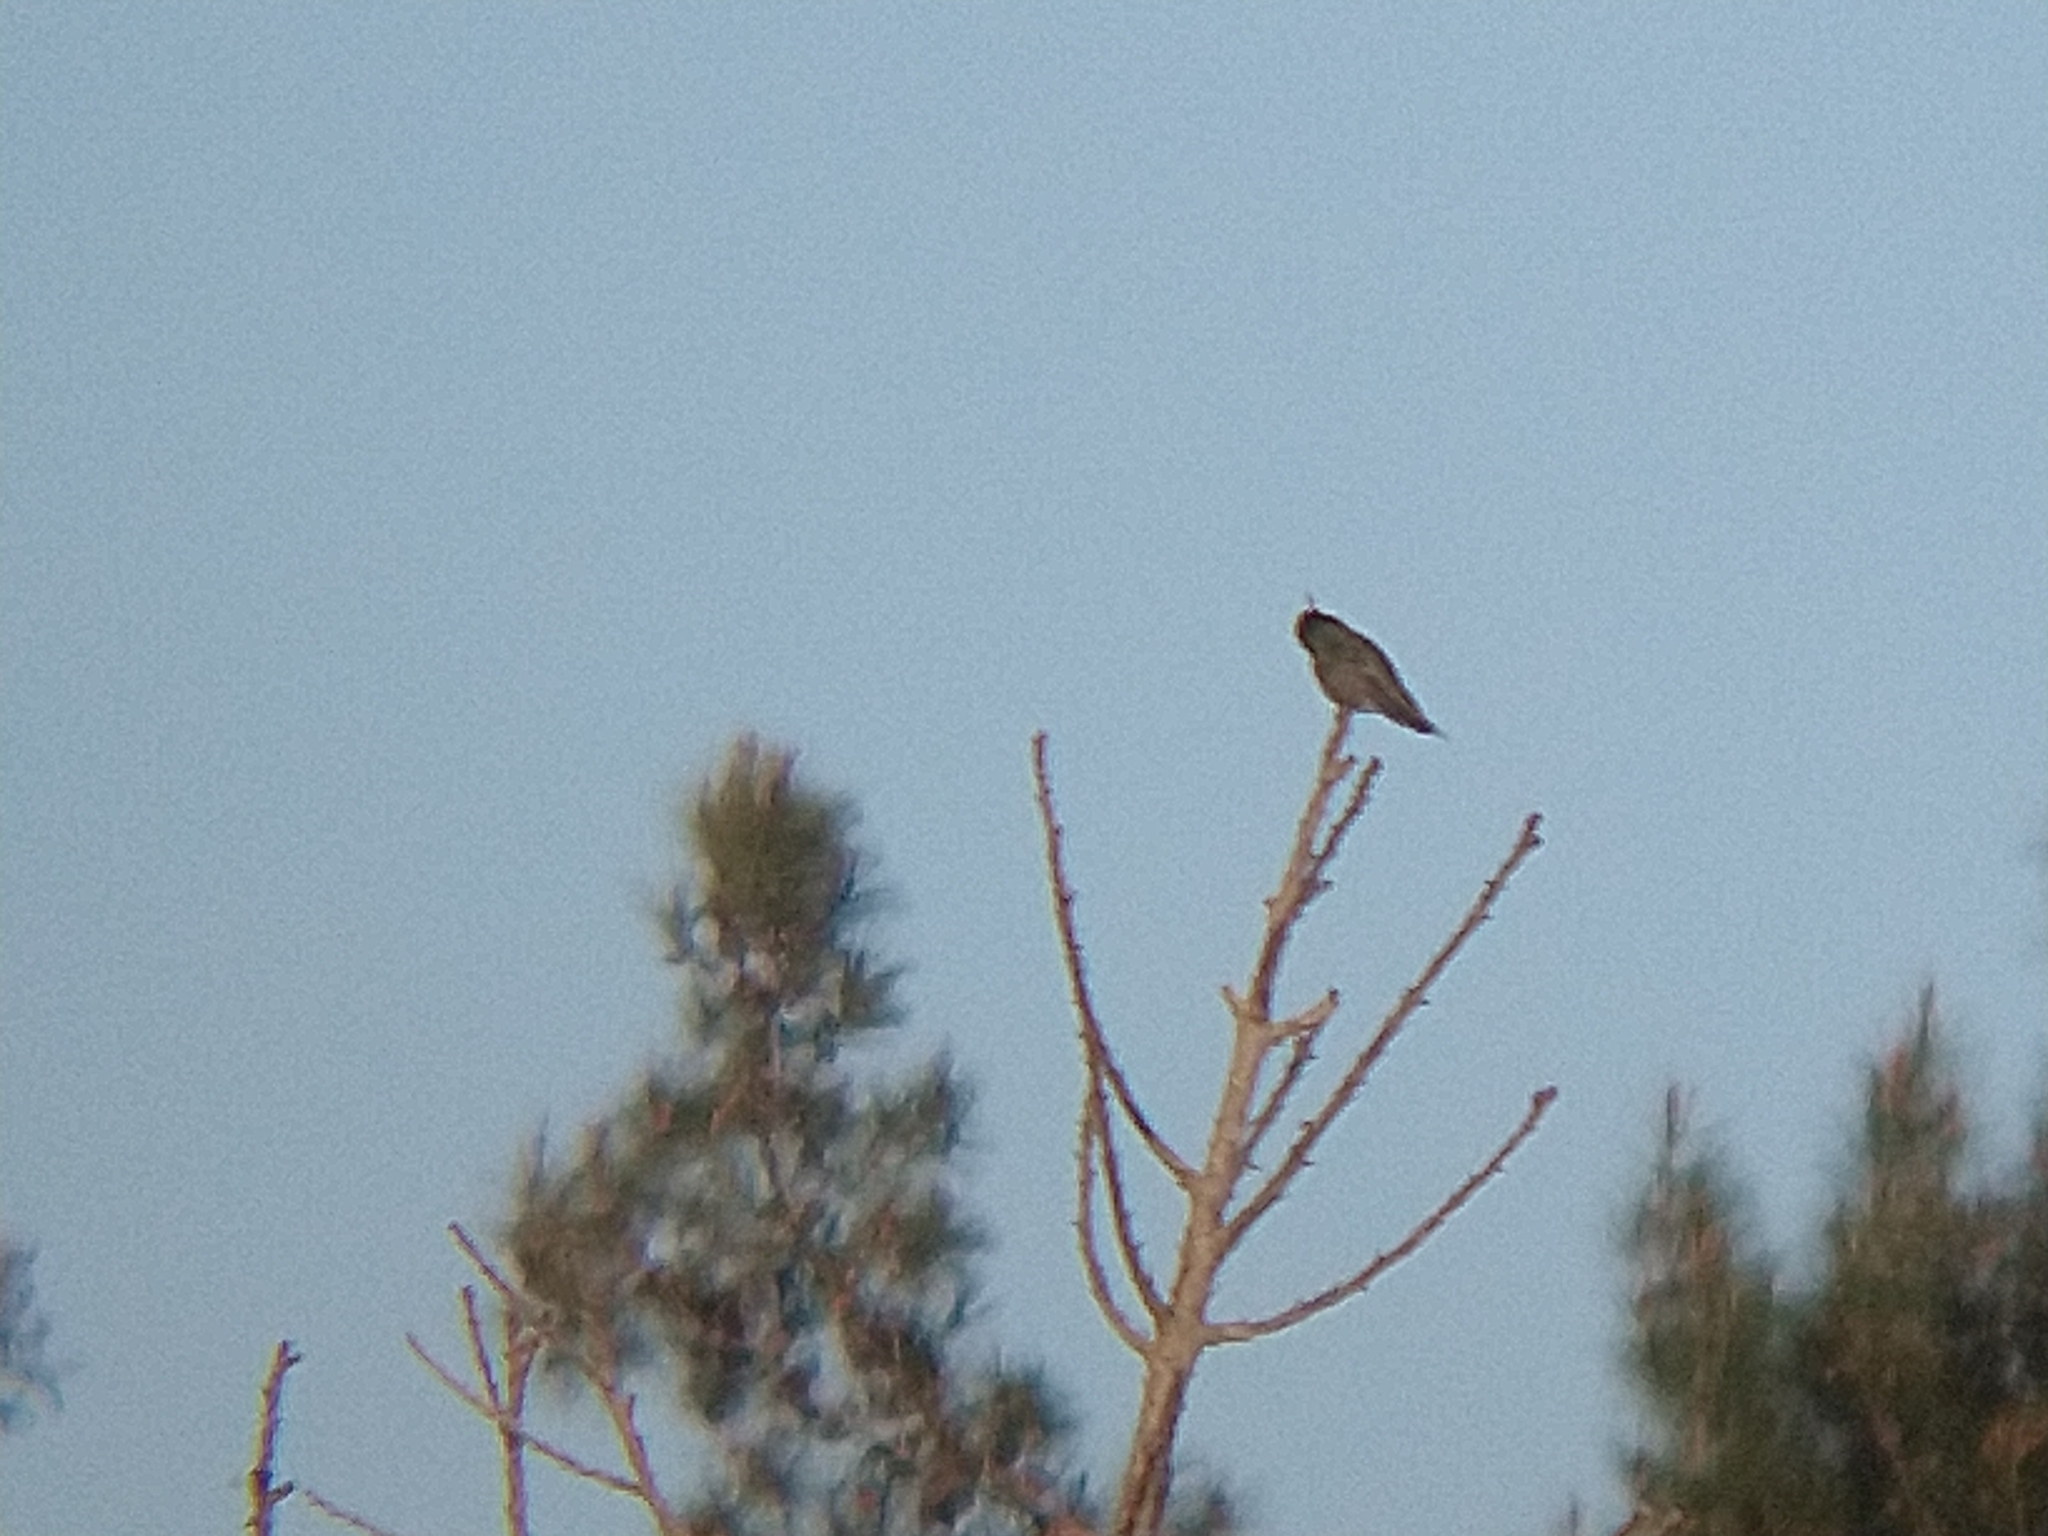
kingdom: Animalia
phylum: Chordata
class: Aves
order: Apodiformes
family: Trochilidae
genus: Calypte
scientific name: Calypte anna
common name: Anna's hummingbird
